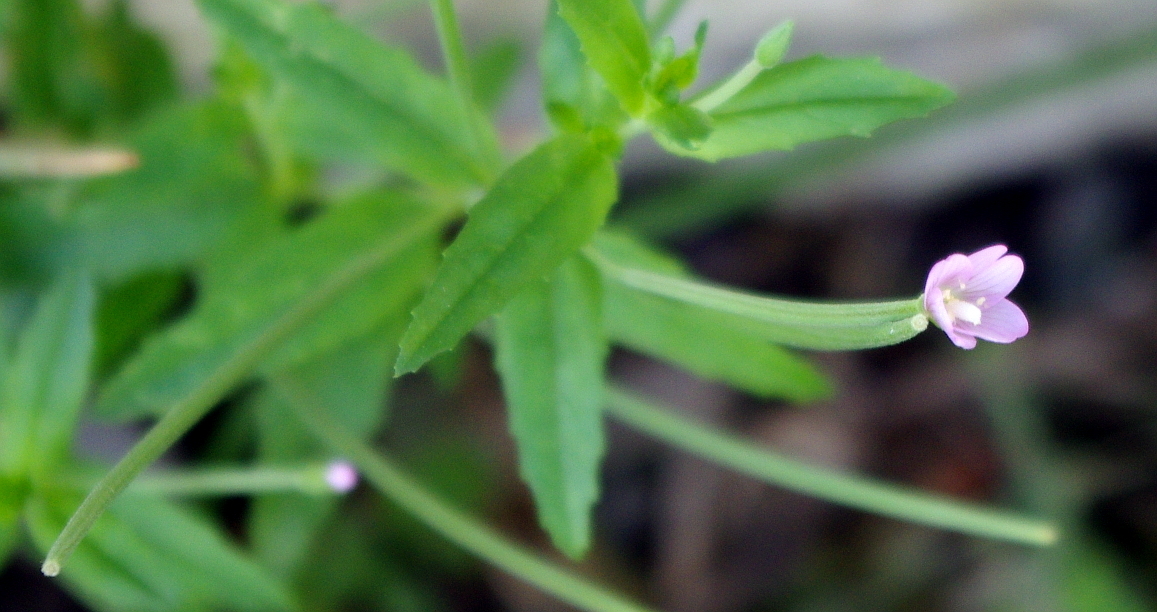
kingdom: Plantae
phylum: Tracheophyta
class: Magnoliopsida
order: Myrtales
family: Onagraceae
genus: Epilobium
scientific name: Epilobium montanum
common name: Broad-leaved willowherb
